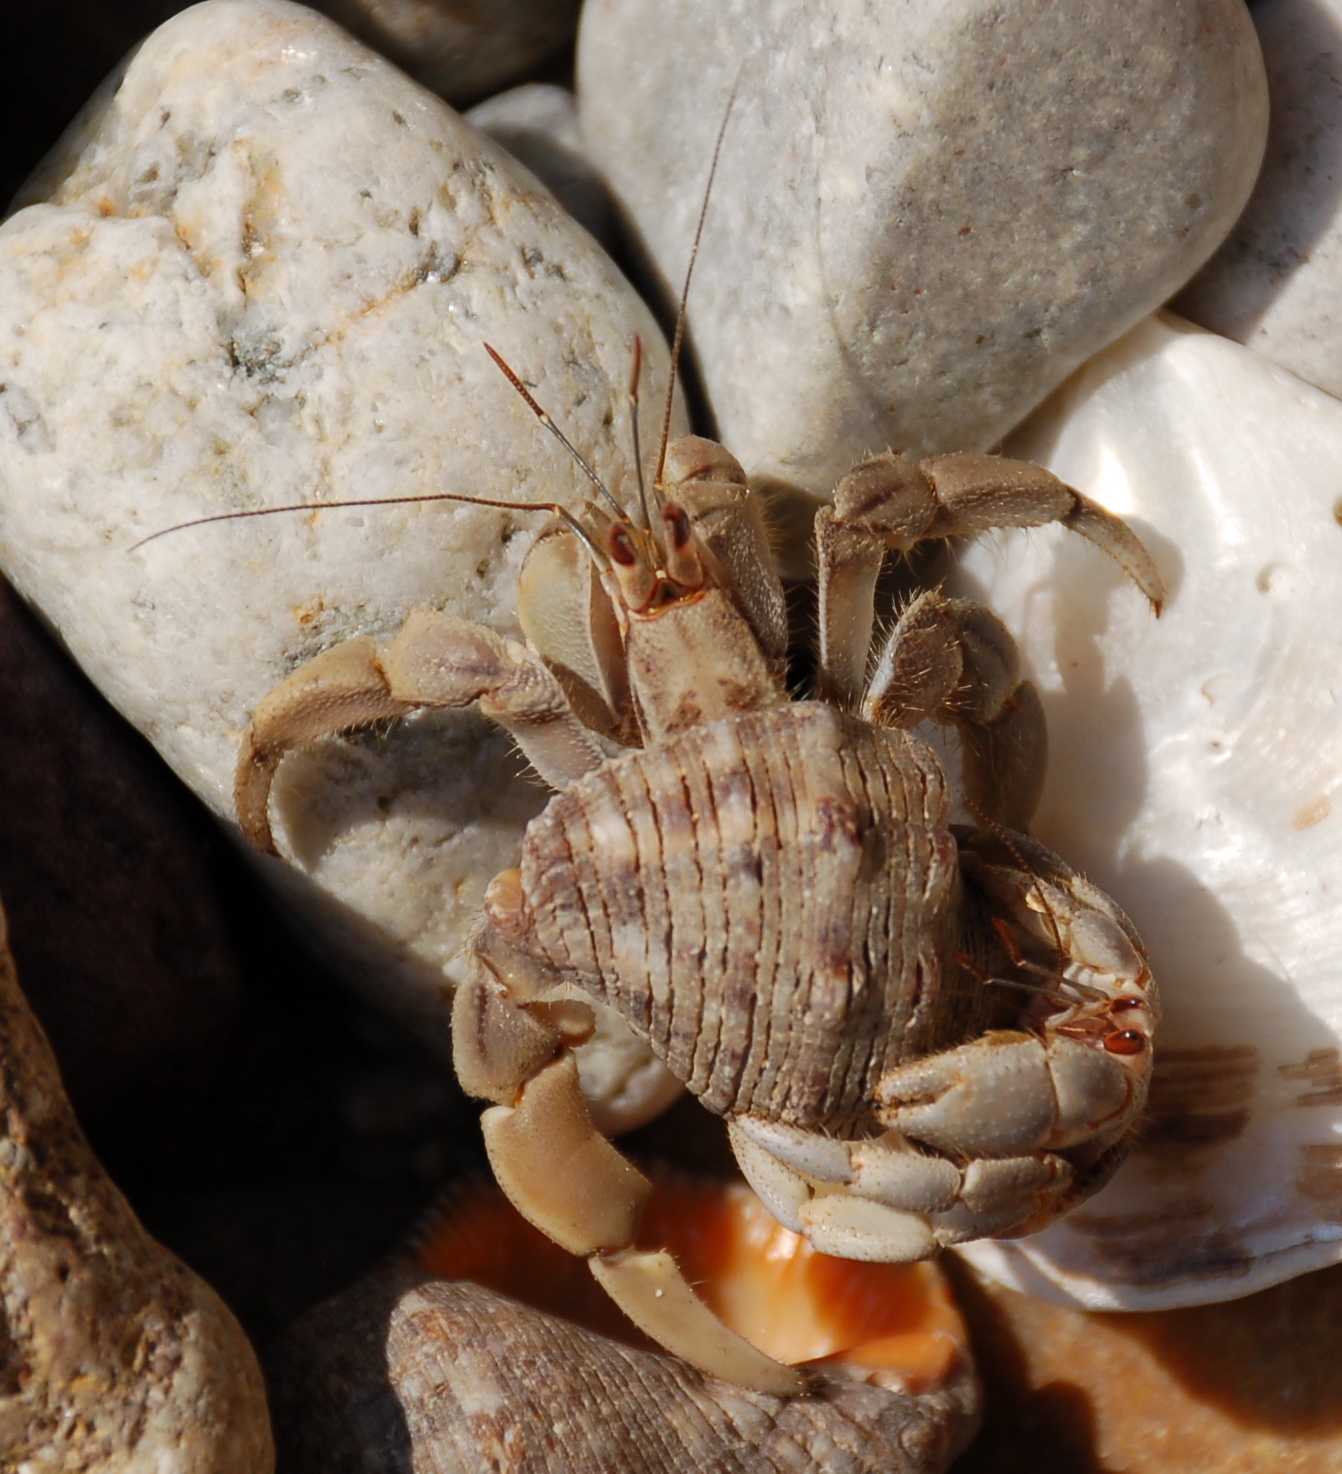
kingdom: Animalia
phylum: Arthropoda
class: Malacostraca
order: Decapoda
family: Coenobitidae
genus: Coenobita
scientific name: Coenobita compressus
